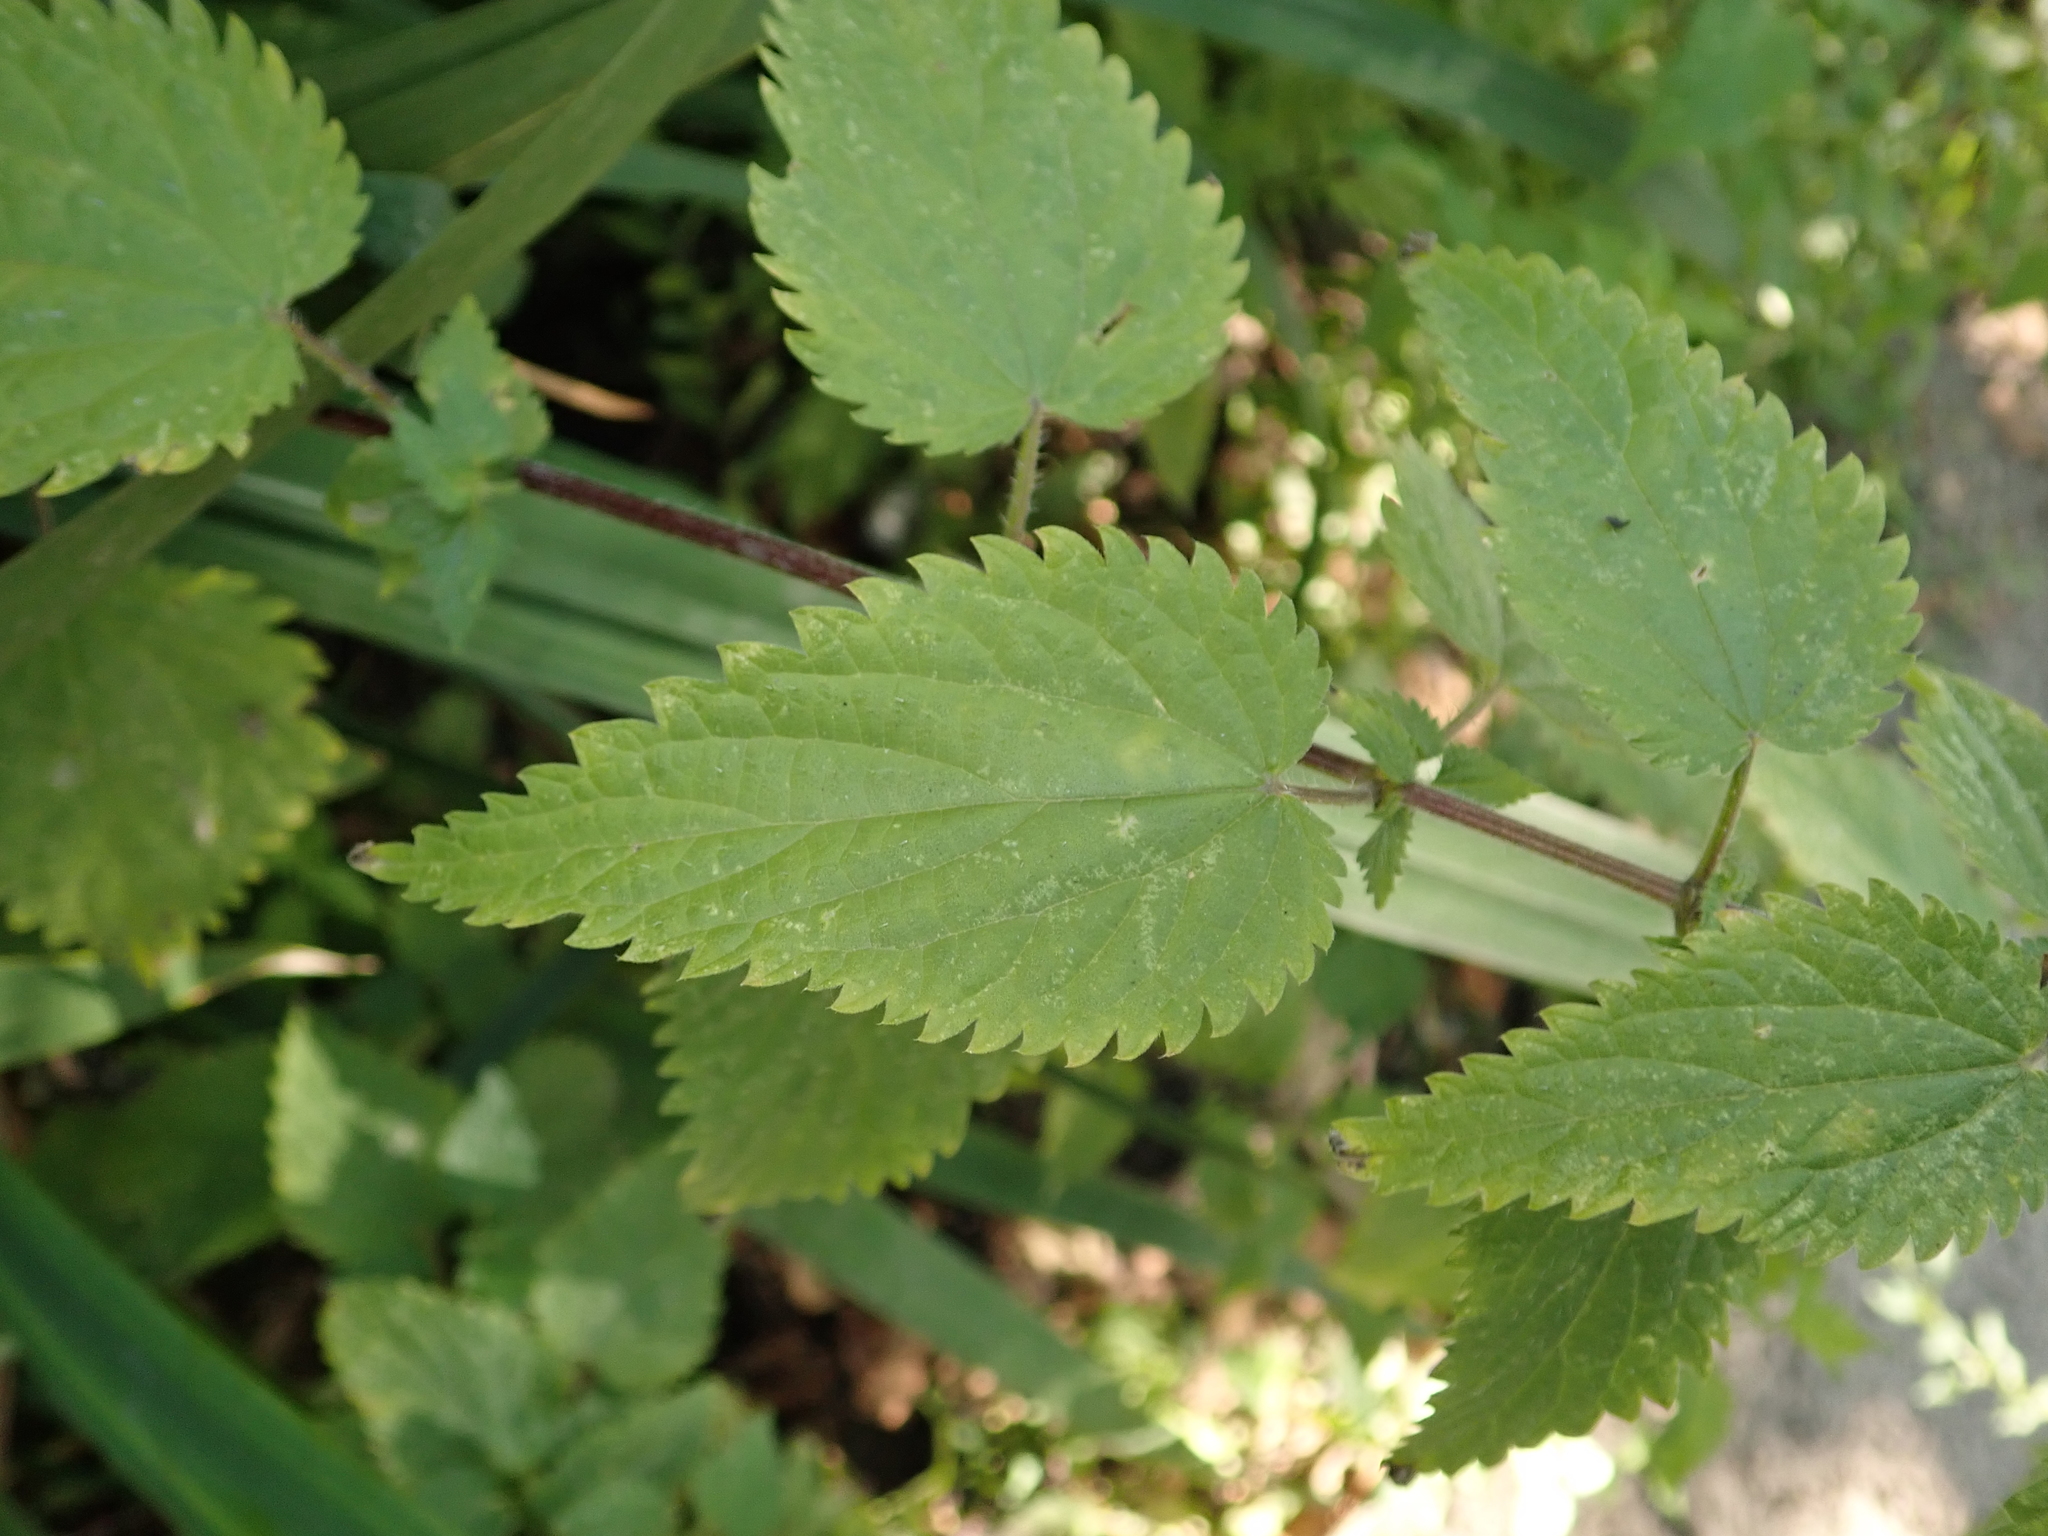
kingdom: Plantae
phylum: Tracheophyta
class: Magnoliopsida
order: Rosales
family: Urticaceae
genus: Urtica
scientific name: Urtica dioica
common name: Common nettle
